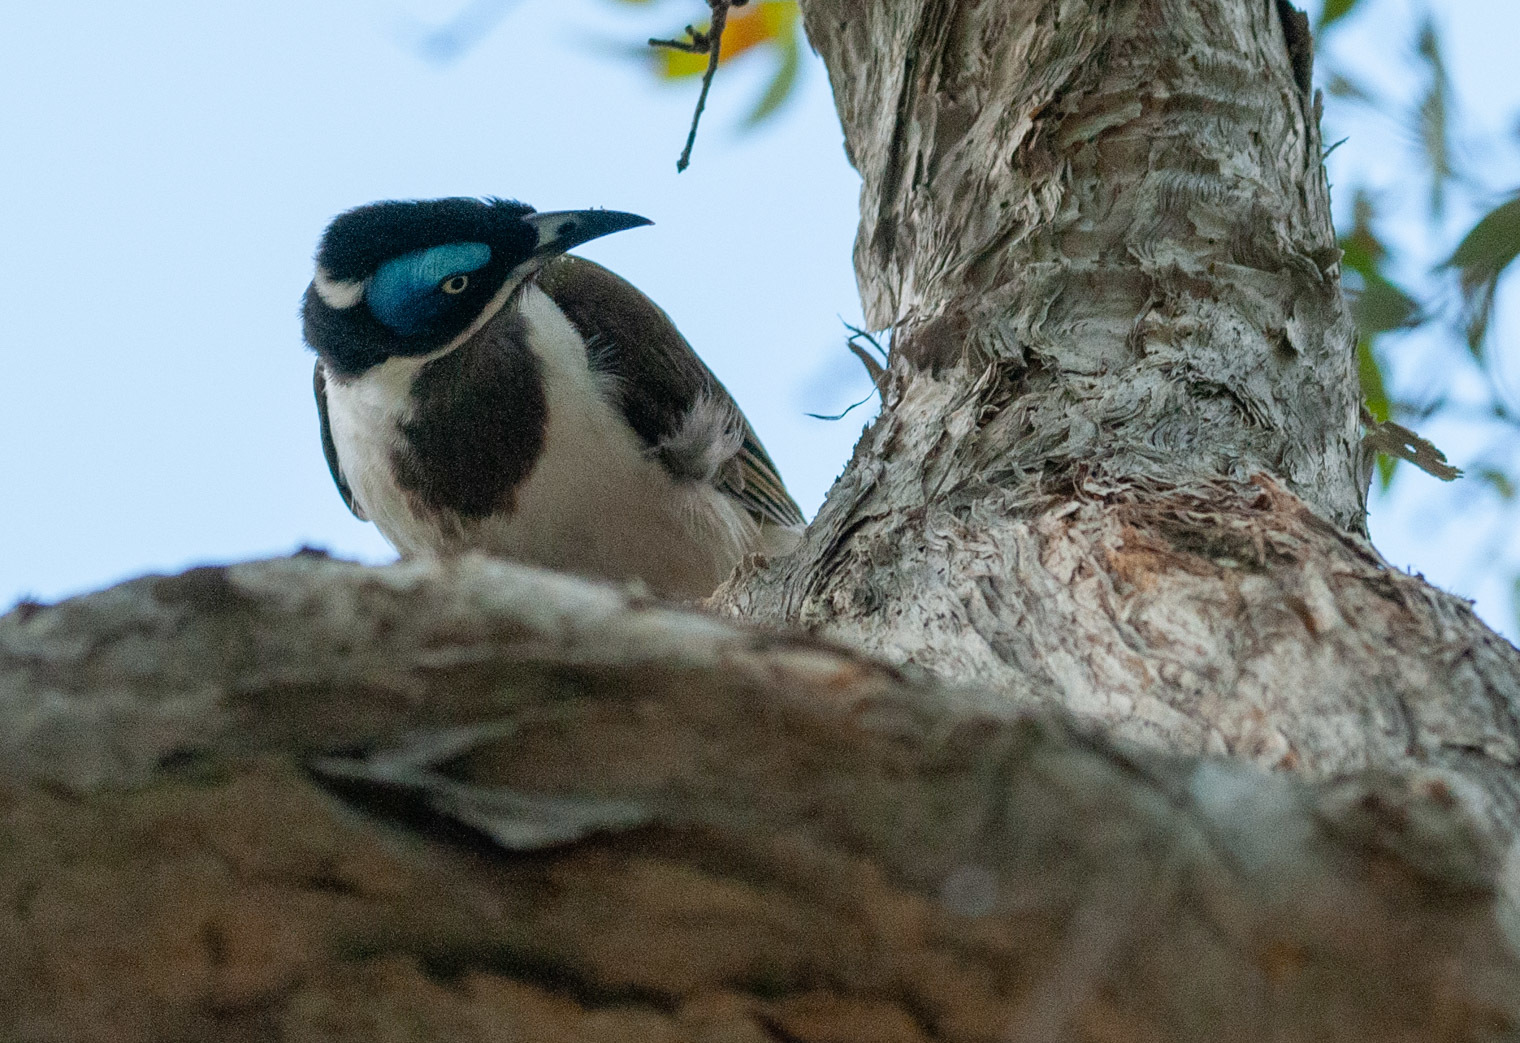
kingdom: Animalia
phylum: Chordata
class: Aves
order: Passeriformes
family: Meliphagidae
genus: Entomyzon
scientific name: Entomyzon cyanotis
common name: Blue-faced honeyeater
